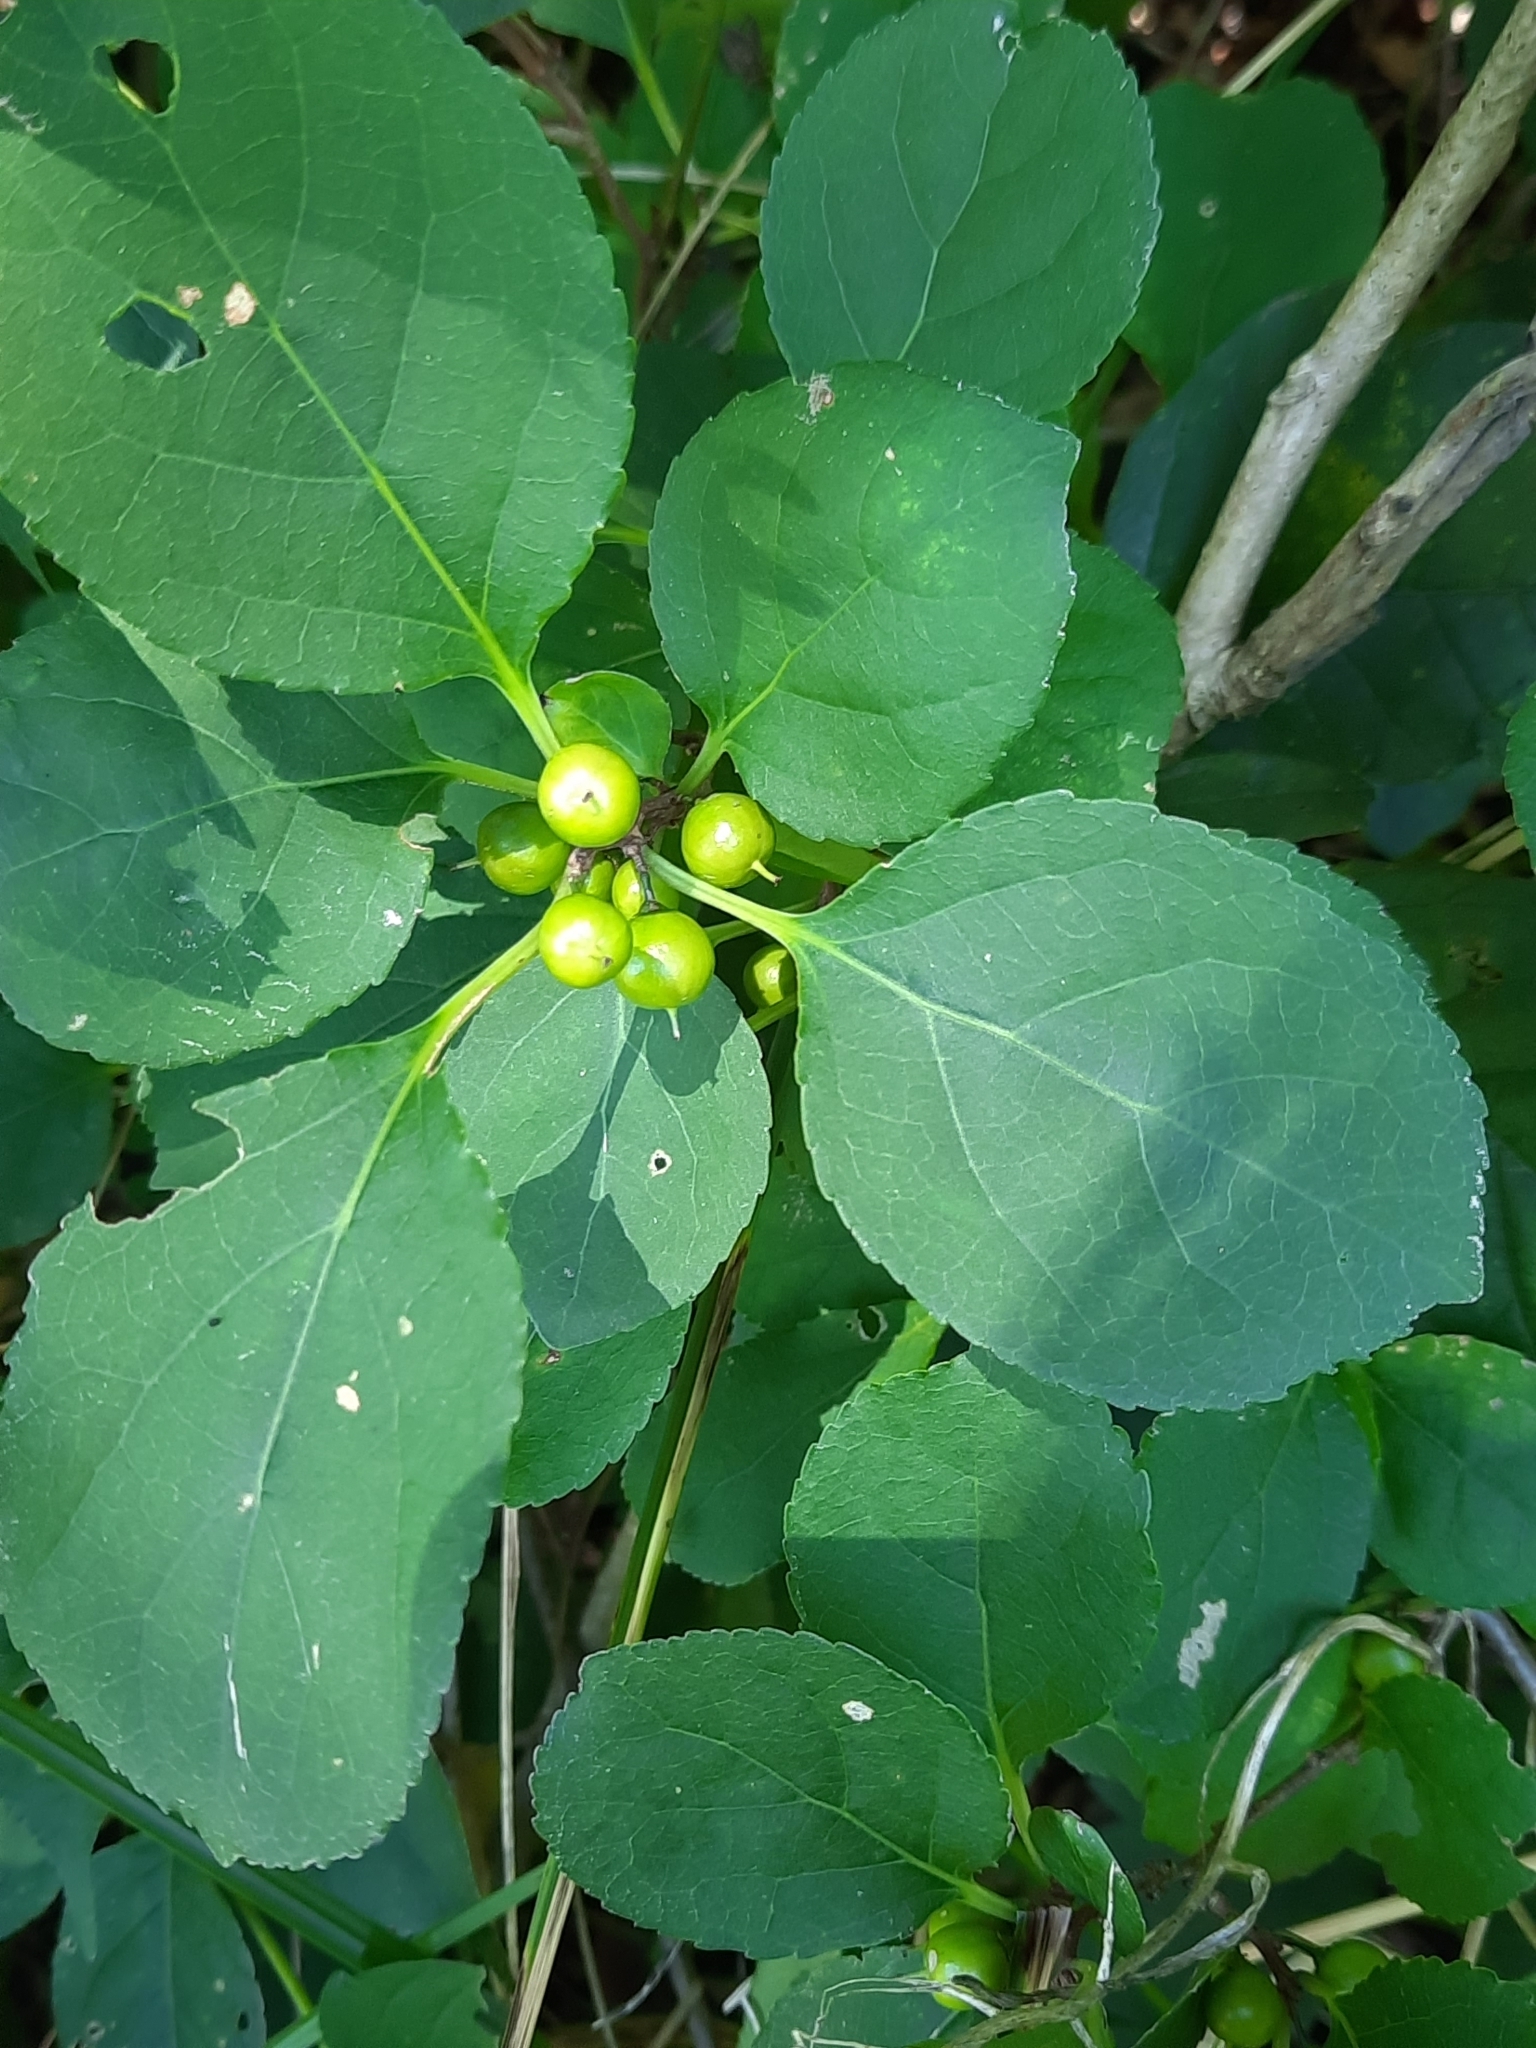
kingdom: Plantae
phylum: Tracheophyta
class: Magnoliopsida
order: Celastrales
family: Celastraceae
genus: Celastrus
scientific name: Celastrus orbiculatus
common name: Oriental bittersweet
